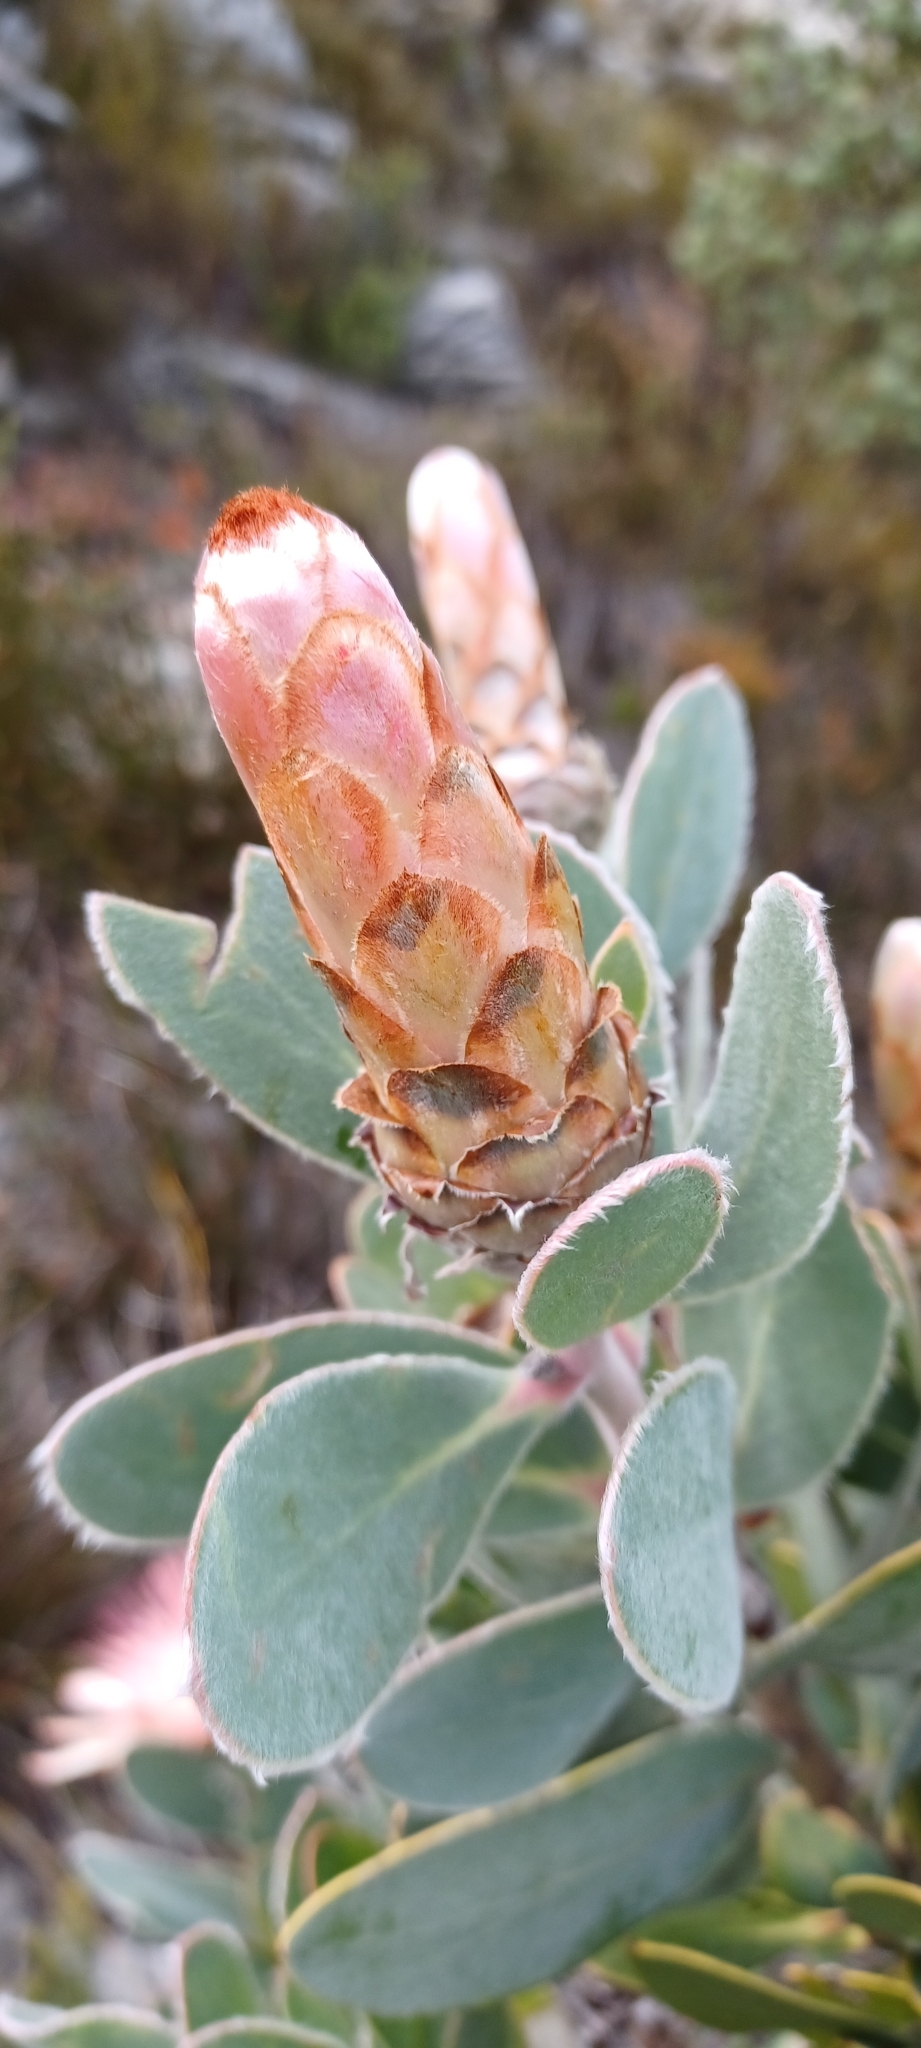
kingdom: Plantae
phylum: Tracheophyta
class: Magnoliopsida
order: Proteales
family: Proteaceae
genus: Protea
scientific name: Protea punctata
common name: Water sugarbush
